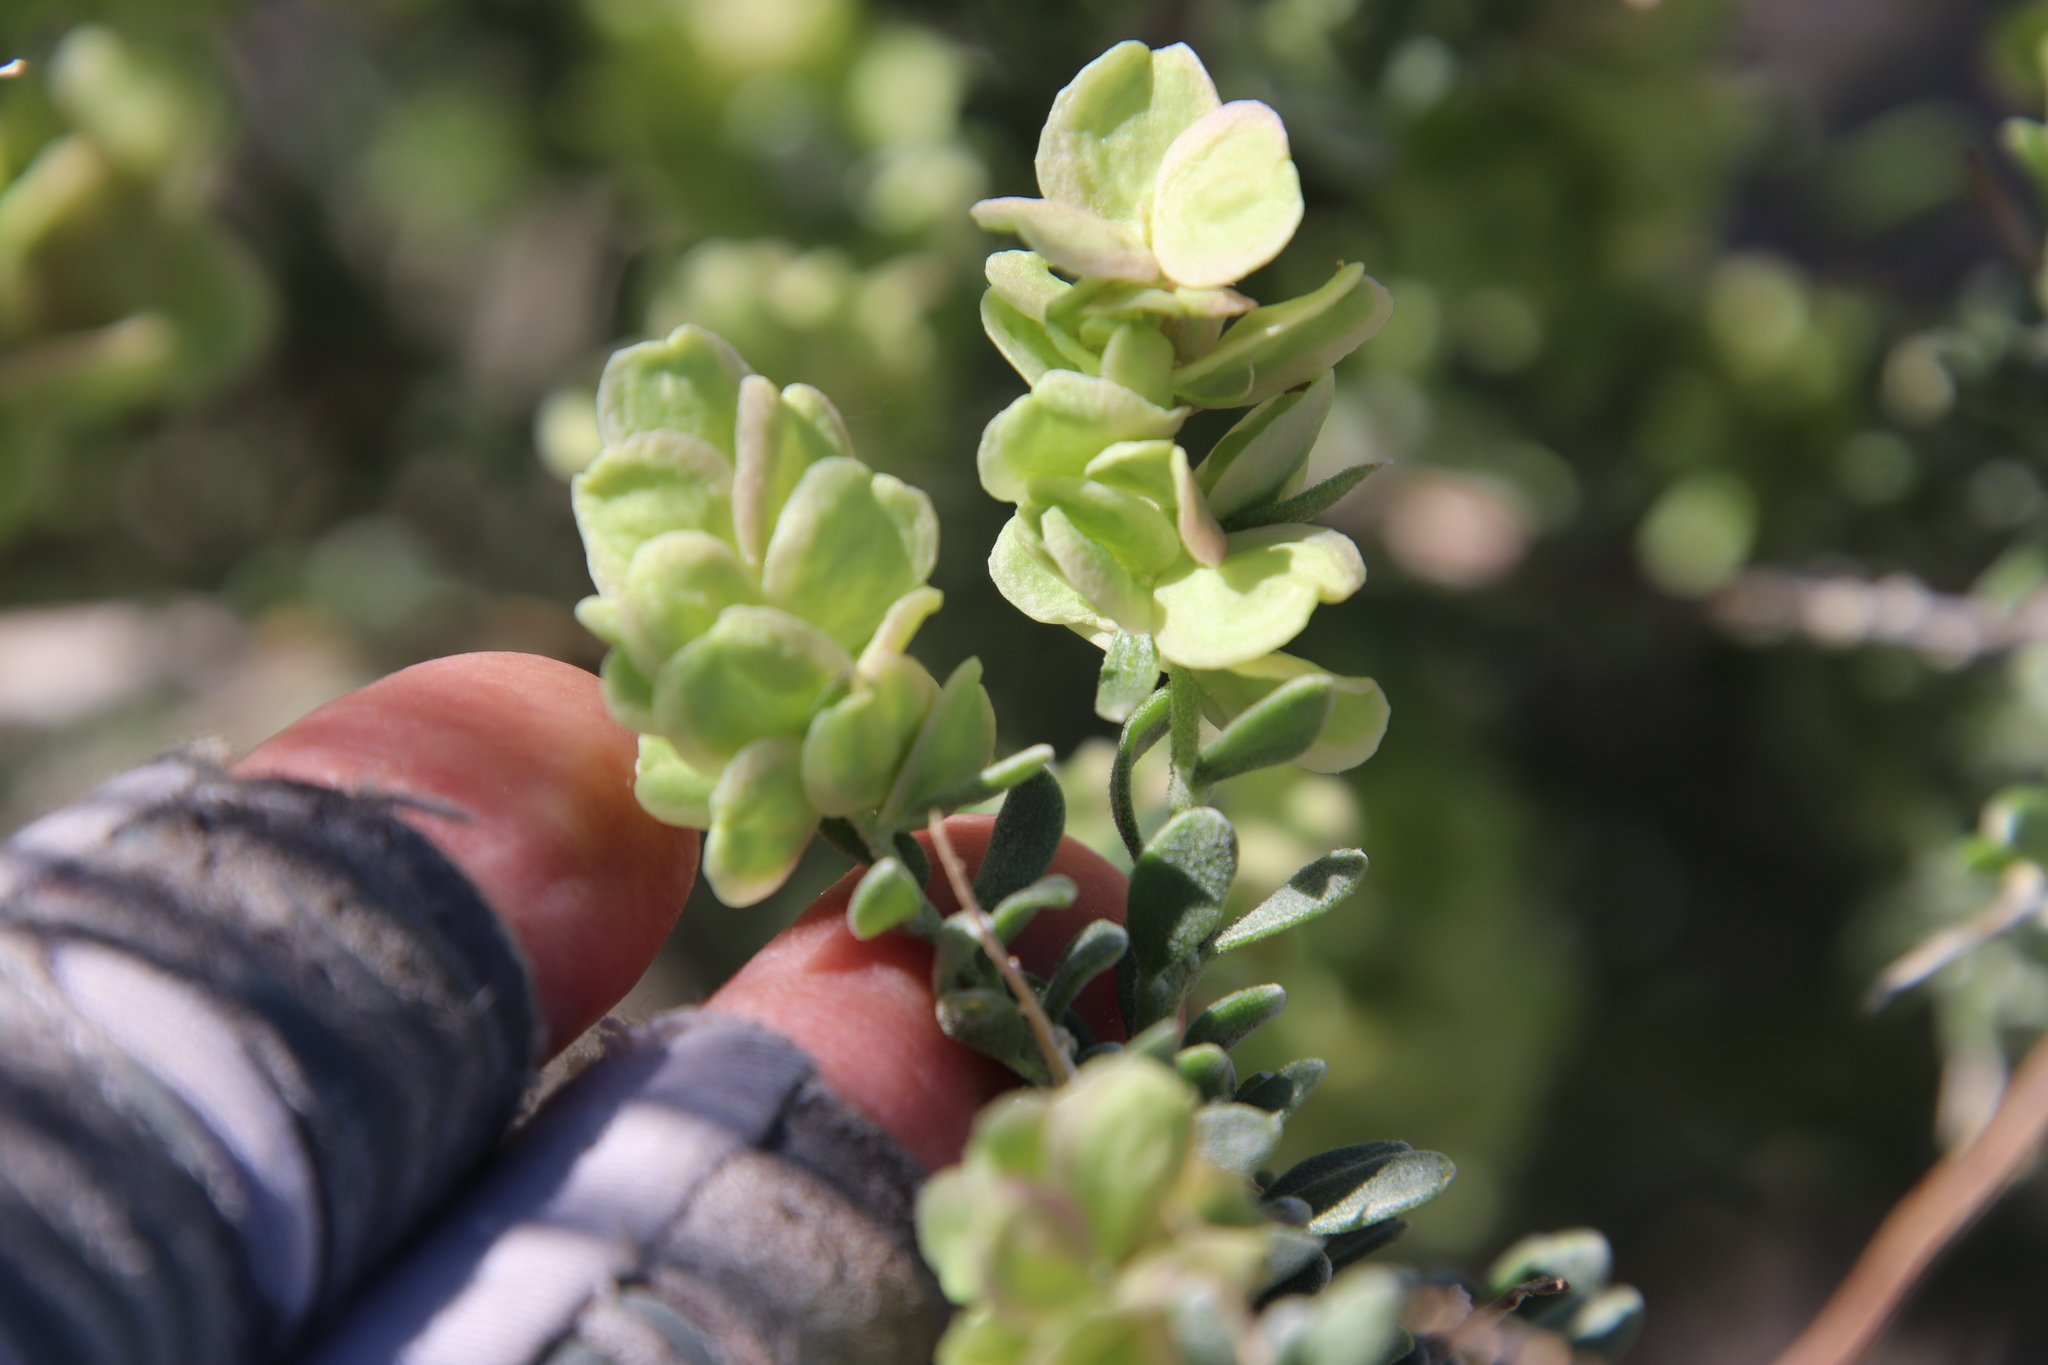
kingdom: Plantae
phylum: Tracheophyta
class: Magnoliopsida
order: Caryophyllales
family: Amaranthaceae
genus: Grayia
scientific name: Grayia spinosa
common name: Spiny hopsage
